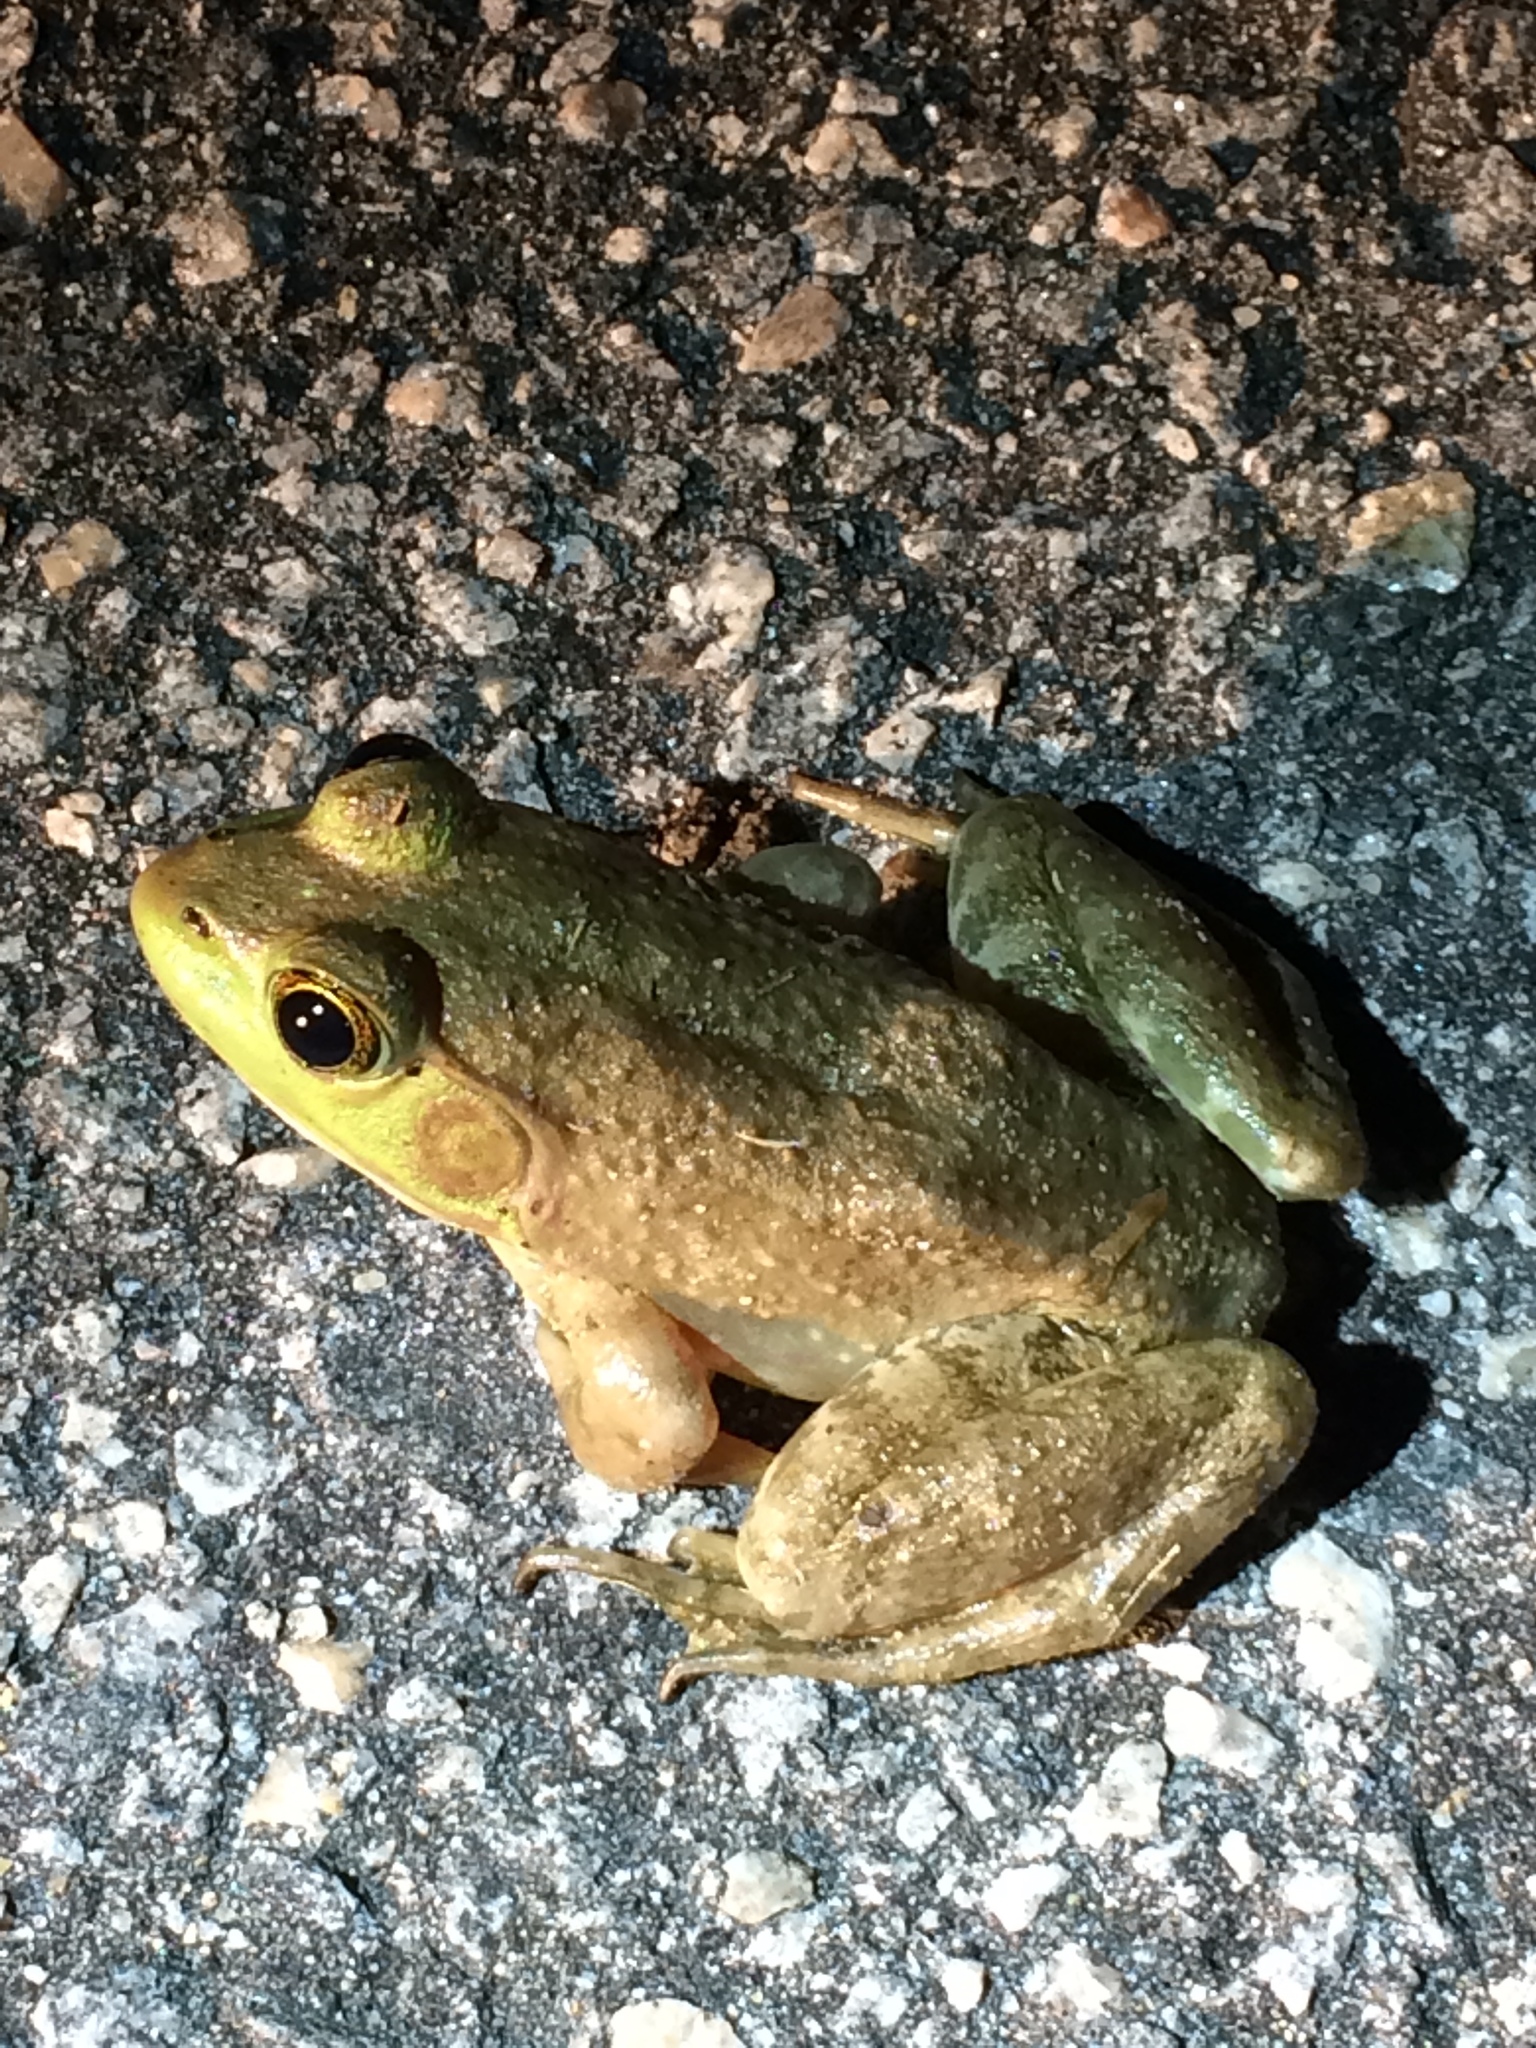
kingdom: Animalia
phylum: Chordata
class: Amphibia
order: Anura
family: Ranidae
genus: Lithobates
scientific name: Lithobates catesbeianus
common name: American bullfrog
